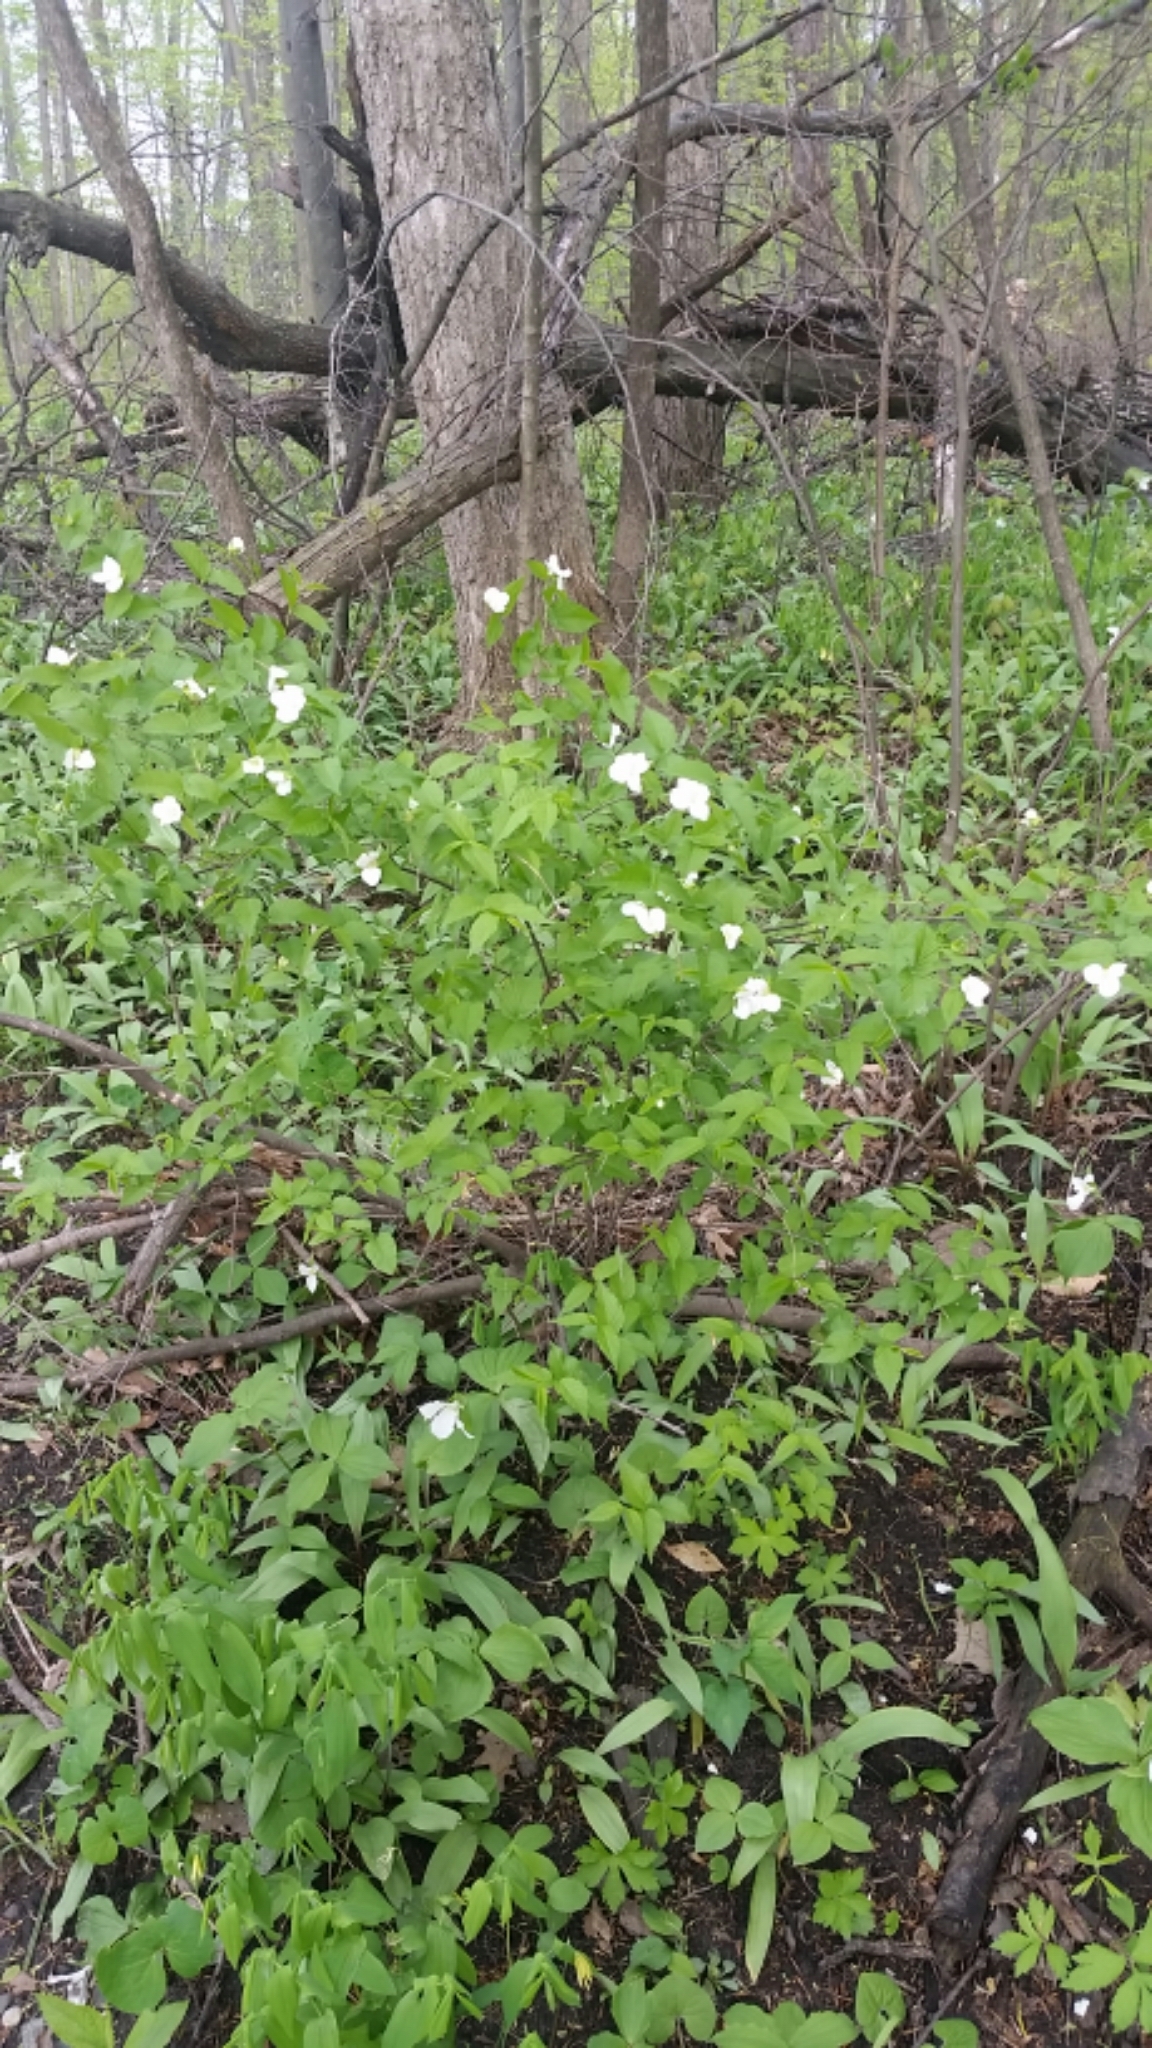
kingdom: Plantae
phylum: Tracheophyta
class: Magnoliopsida
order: Rosales
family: Rosaceae
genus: Rhodotypos
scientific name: Rhodotypos scandens
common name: Jetbead
